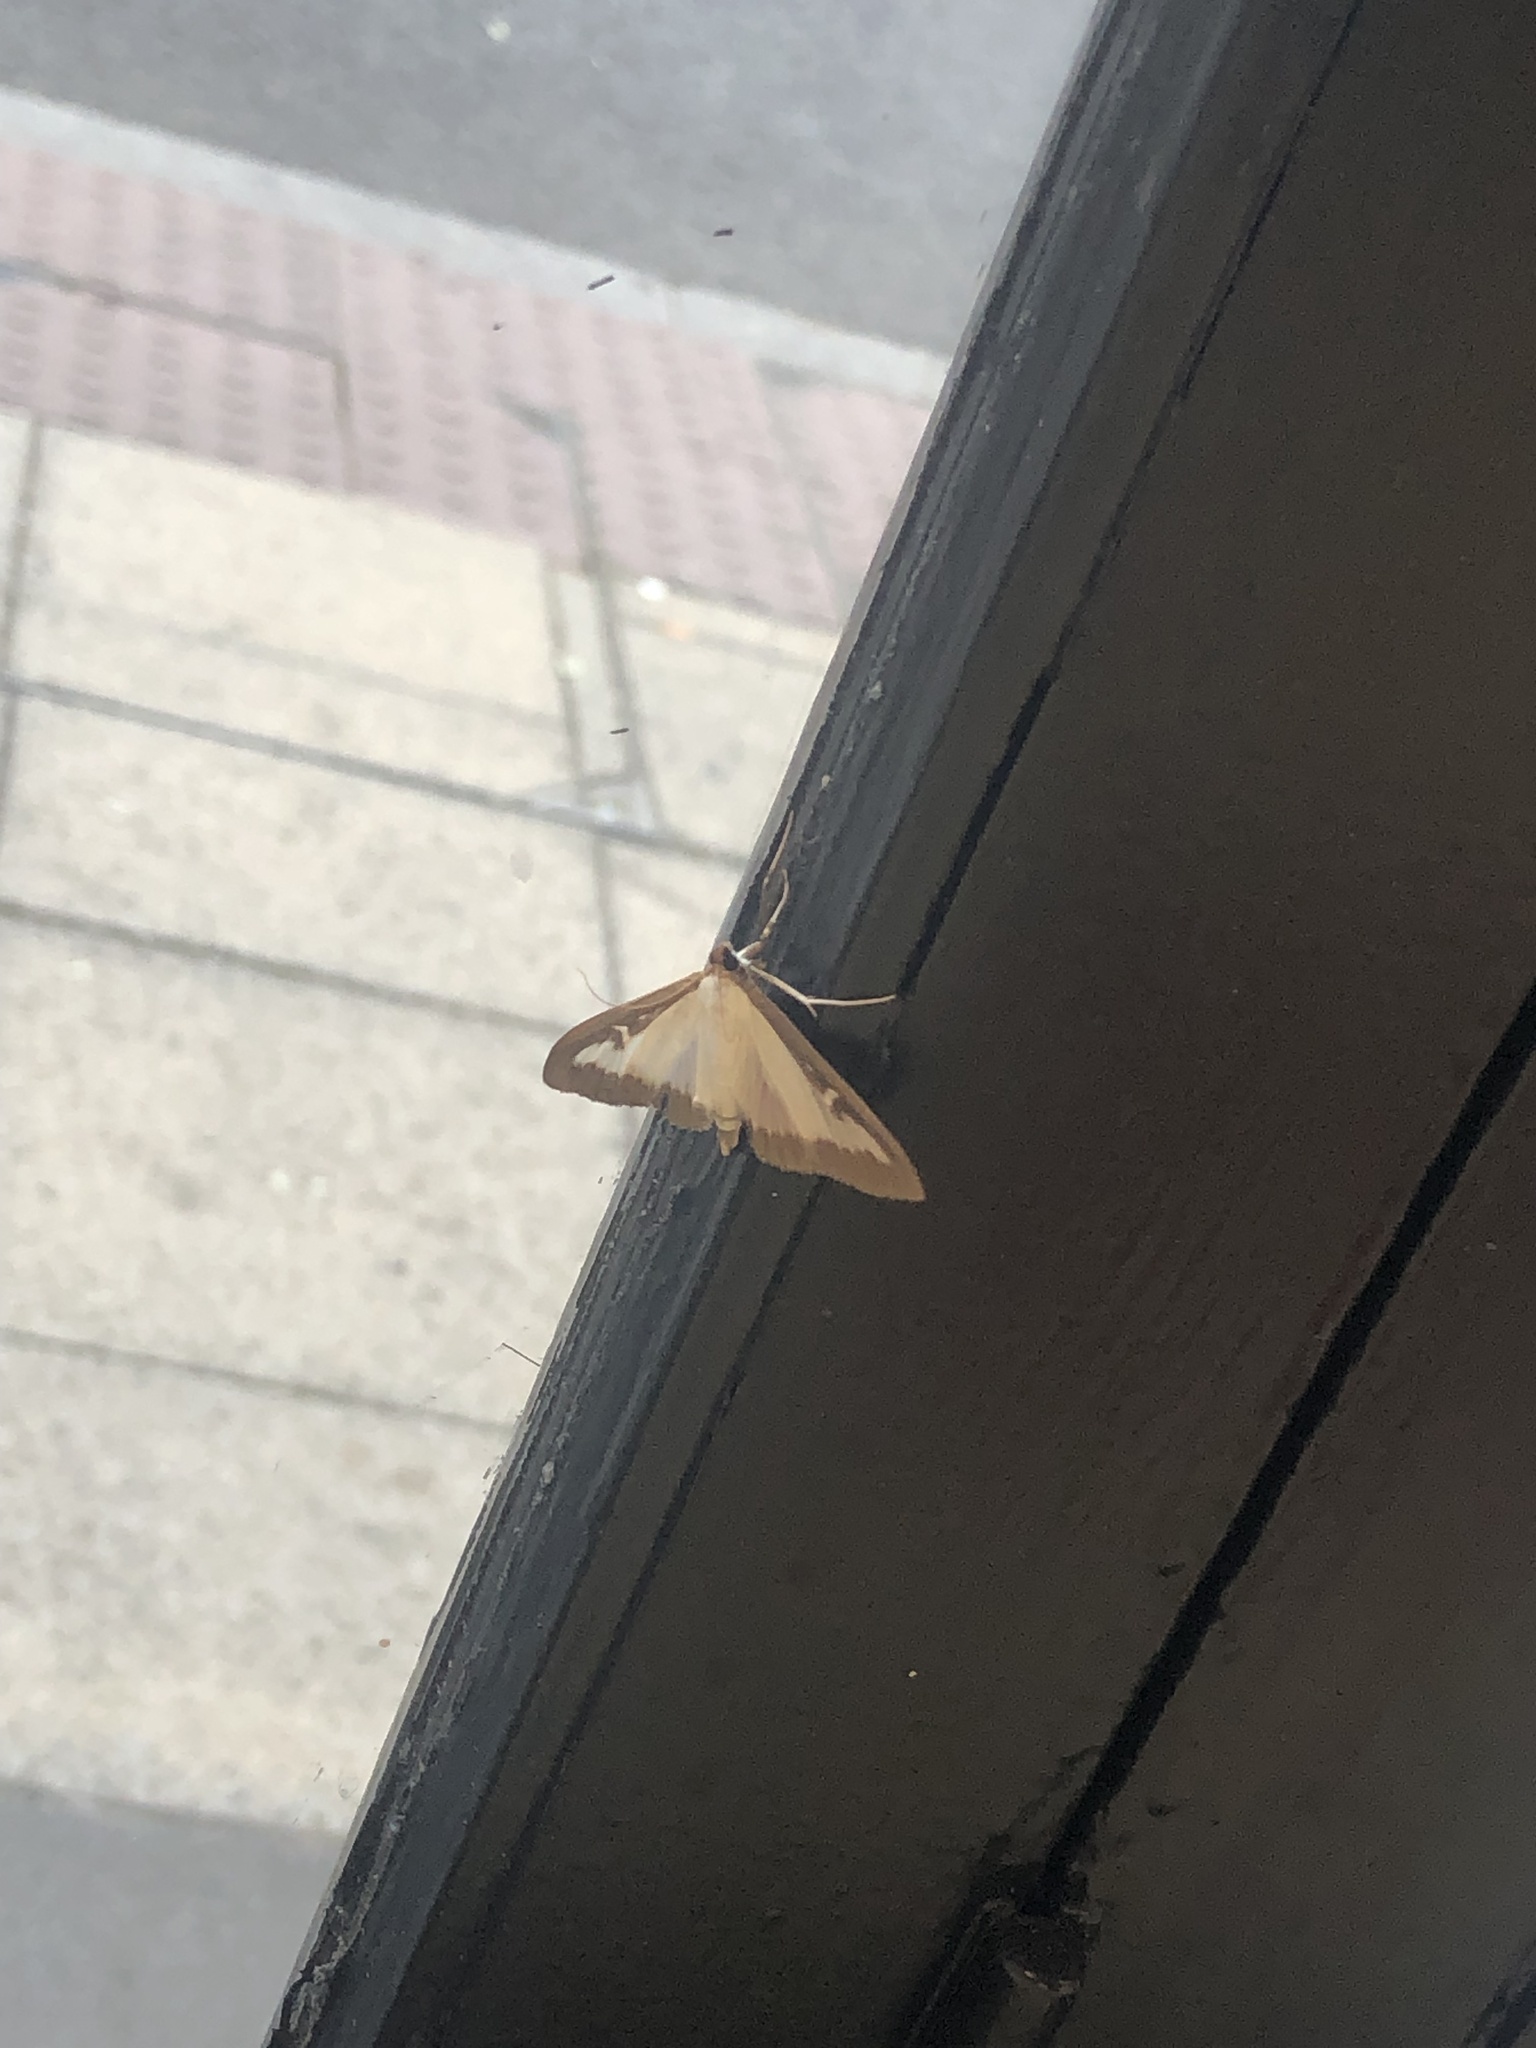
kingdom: Animalia
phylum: Arthropoda
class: Insecta
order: Lepidoptera
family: Crambidae
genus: Cydalima
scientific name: Cydalima perspectalis
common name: Box tree moth
